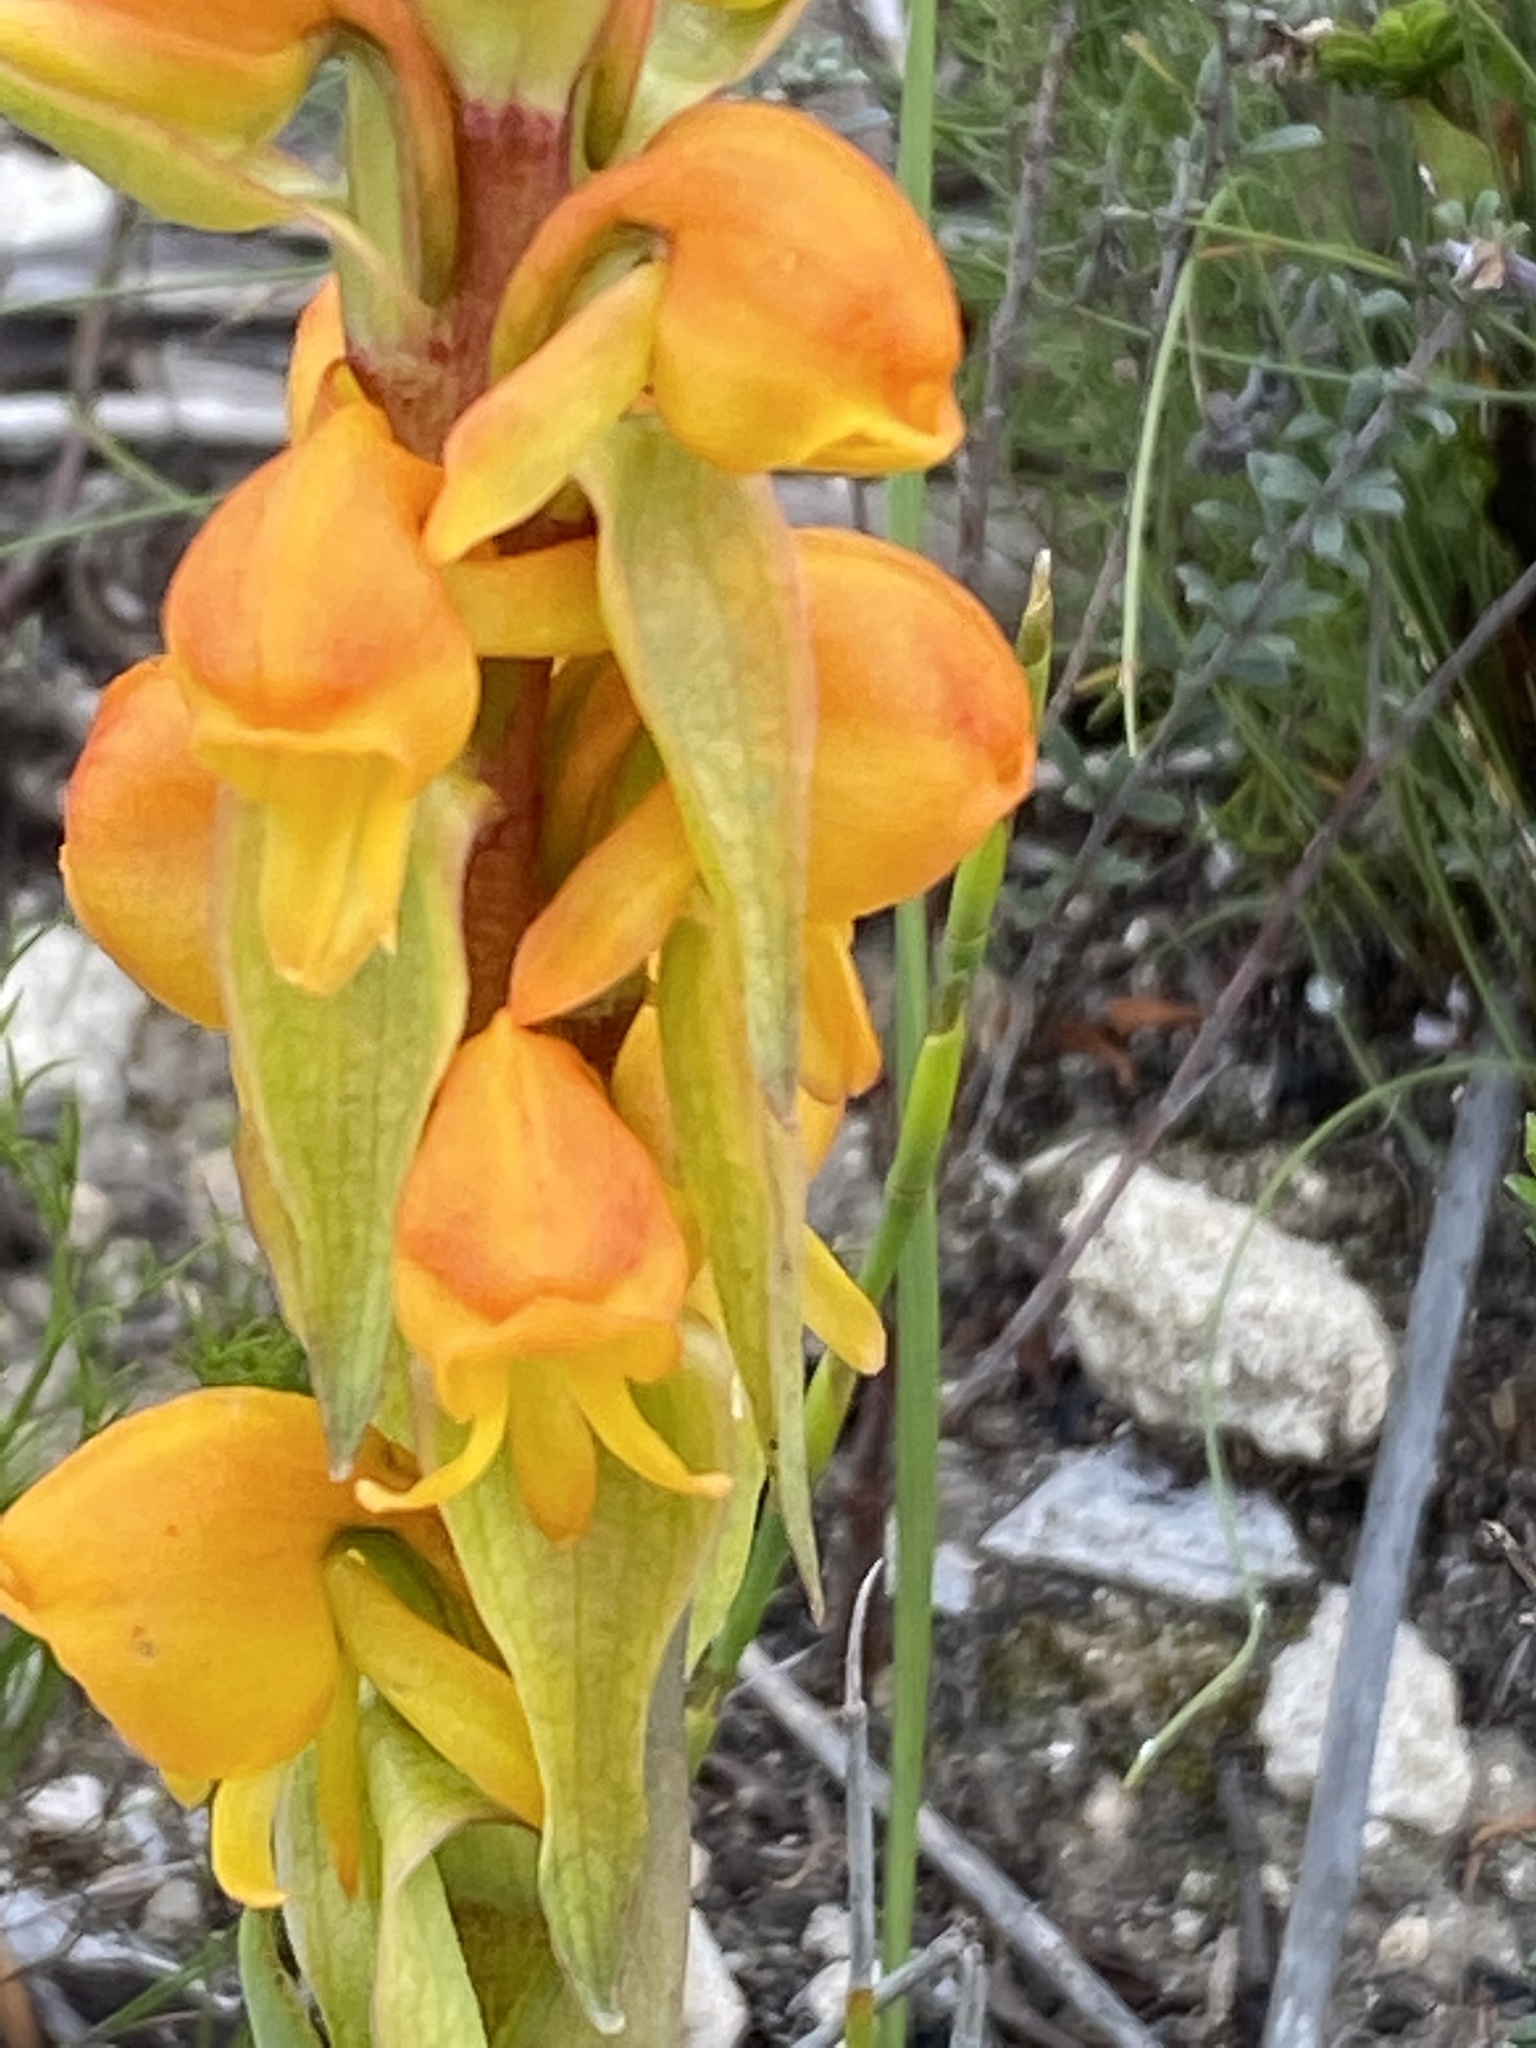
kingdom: Plantae
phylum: Tracheophyta
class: Liliopsida
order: Asparagales
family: Orchidaceae
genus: Satyrium
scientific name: Satyrium coriifolium
